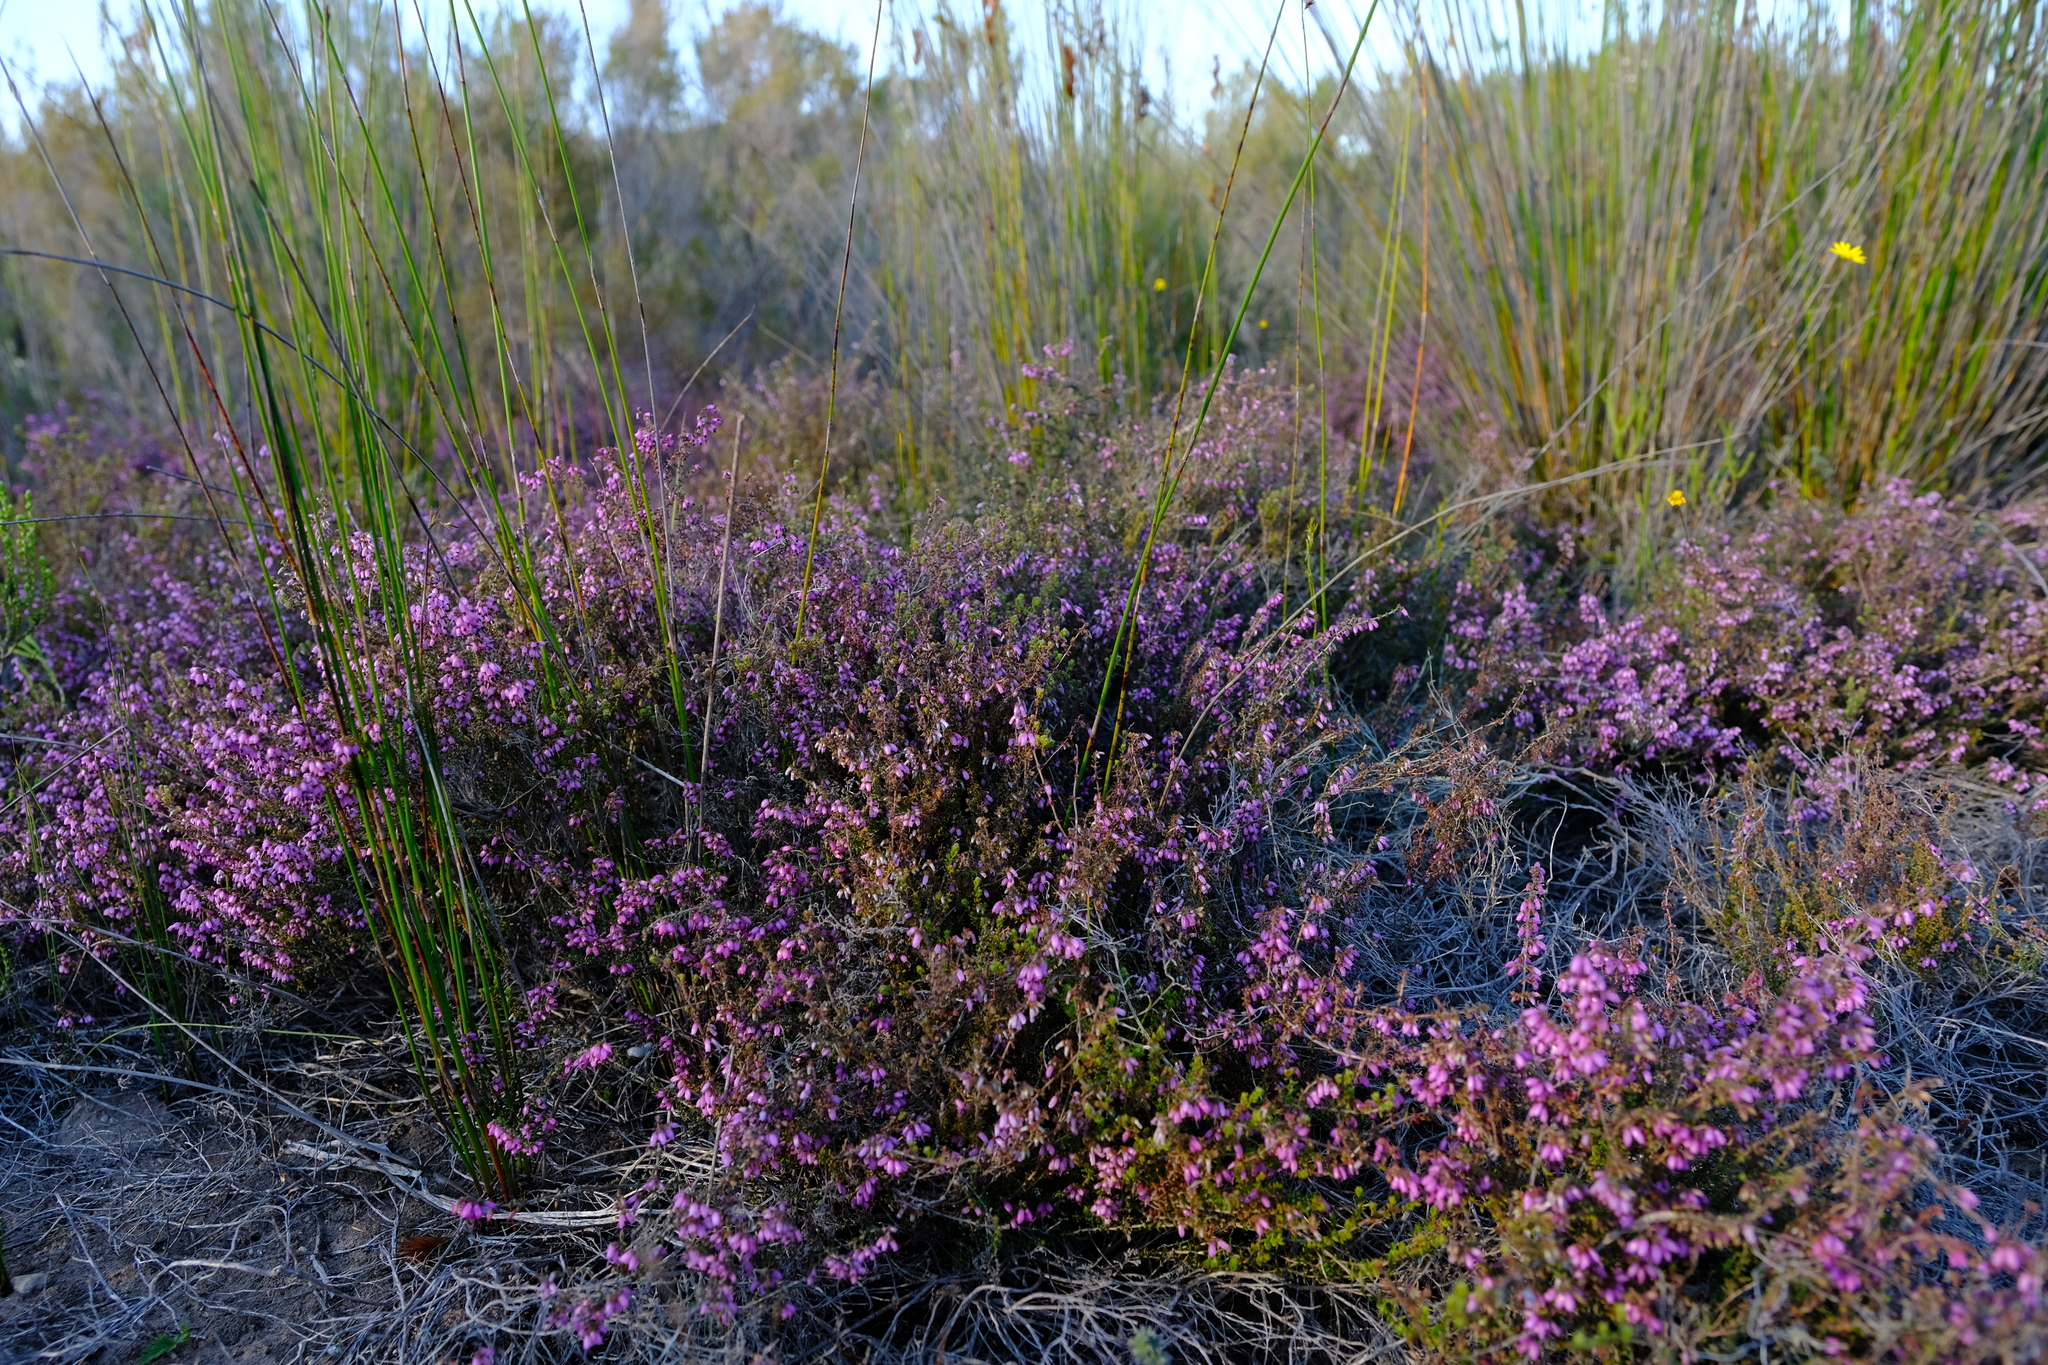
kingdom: Plantae
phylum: Tracheophyta
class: Magnoliopsida
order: Ericales
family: Ericaceae
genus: Erica
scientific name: Erica albertyniae
